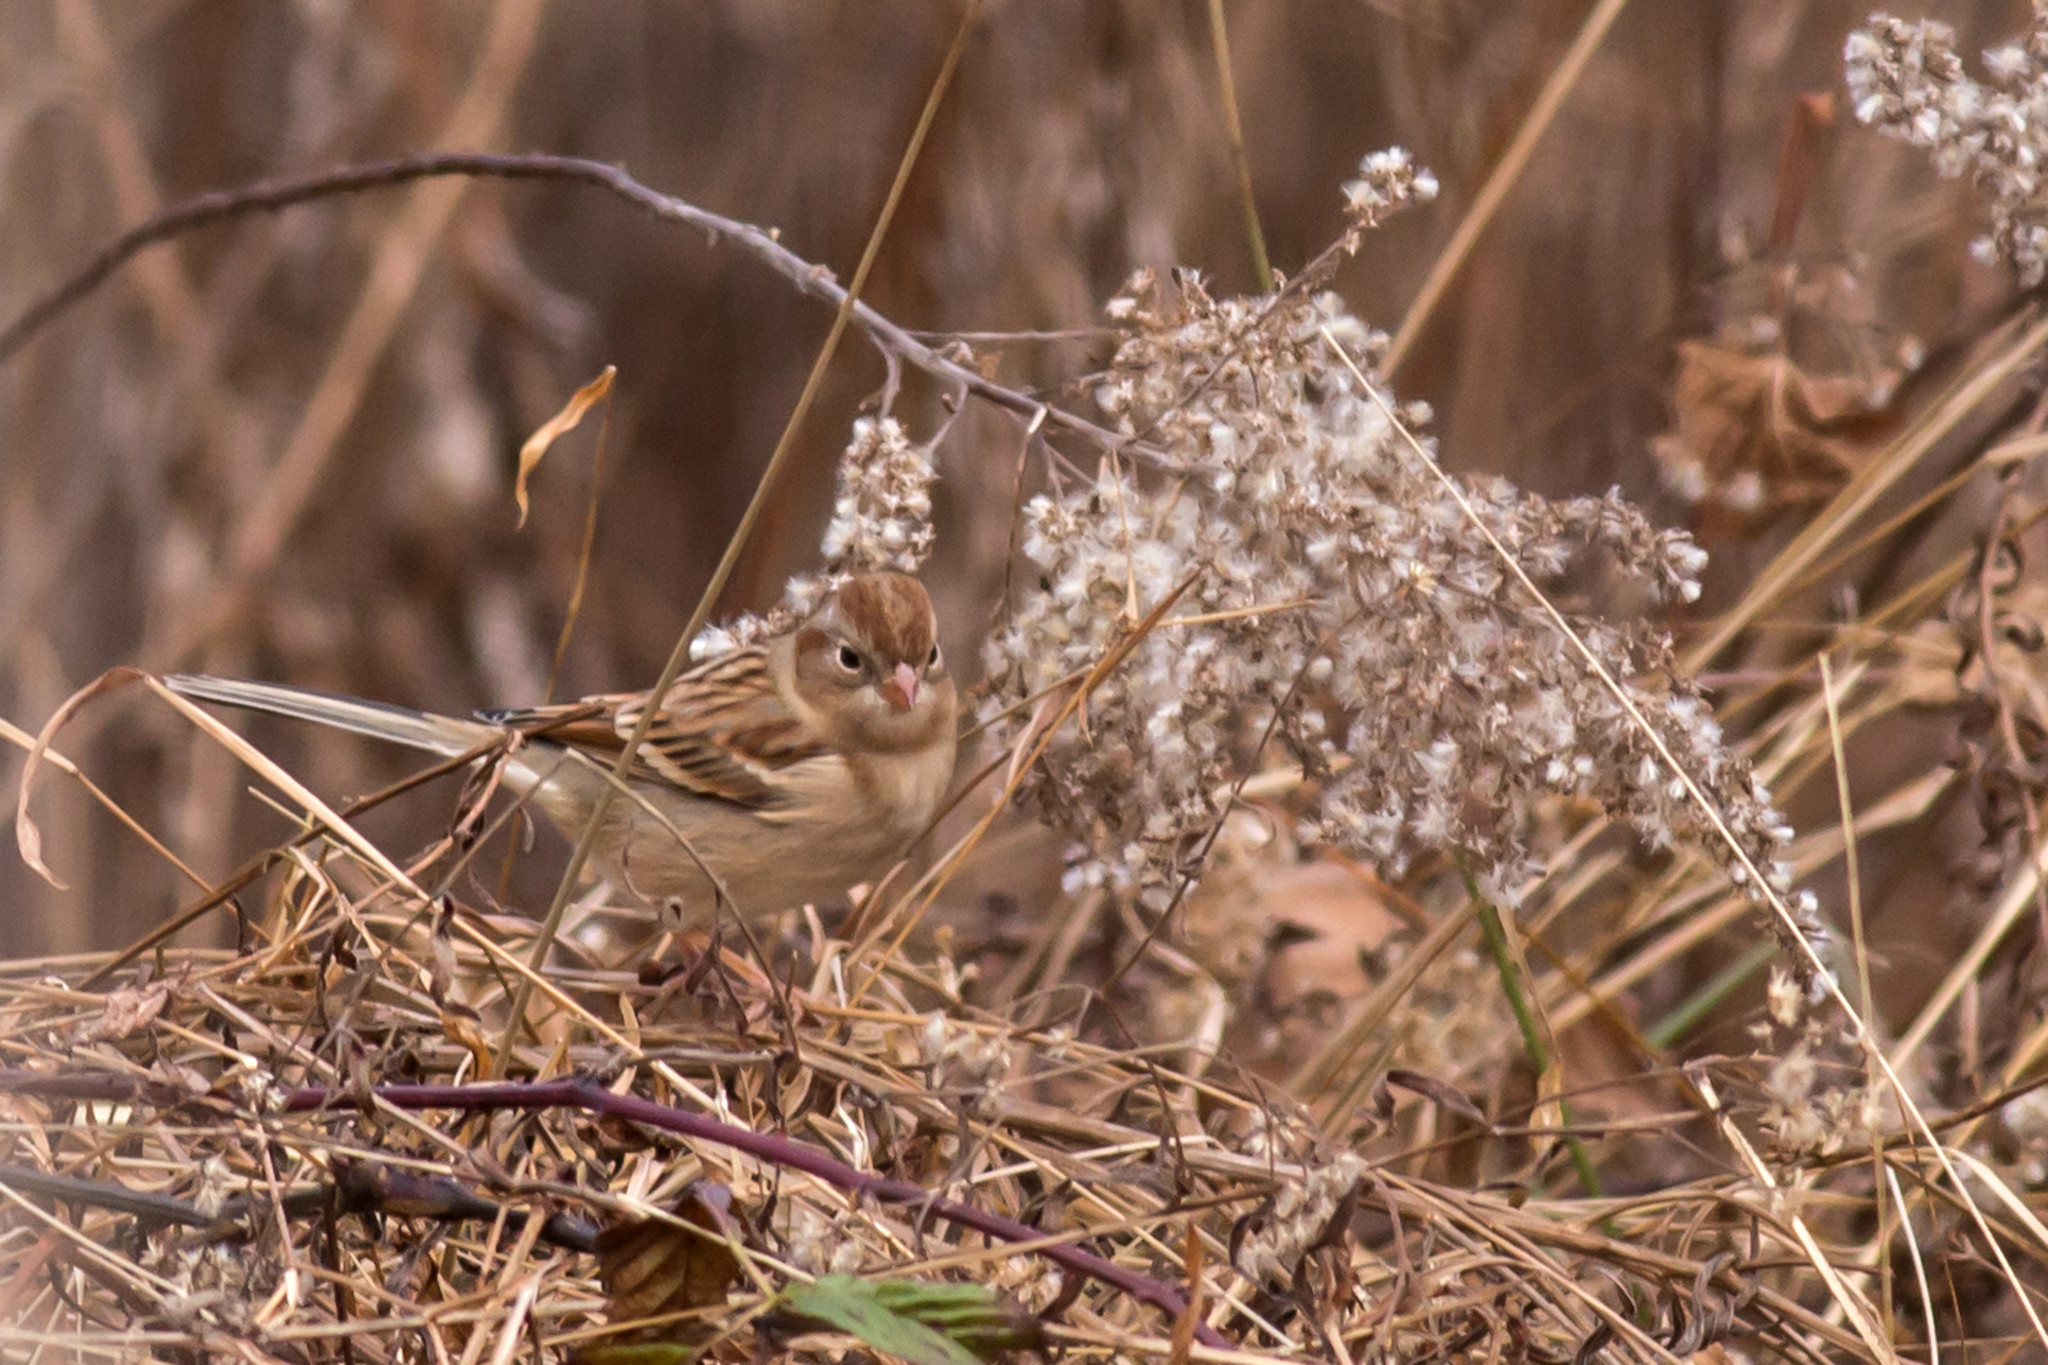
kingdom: Animalia
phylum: Chordata
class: Aves
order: Passeriformes
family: Passerellidae
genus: Spizella
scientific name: Spizella pusilla
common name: Field sparrow
